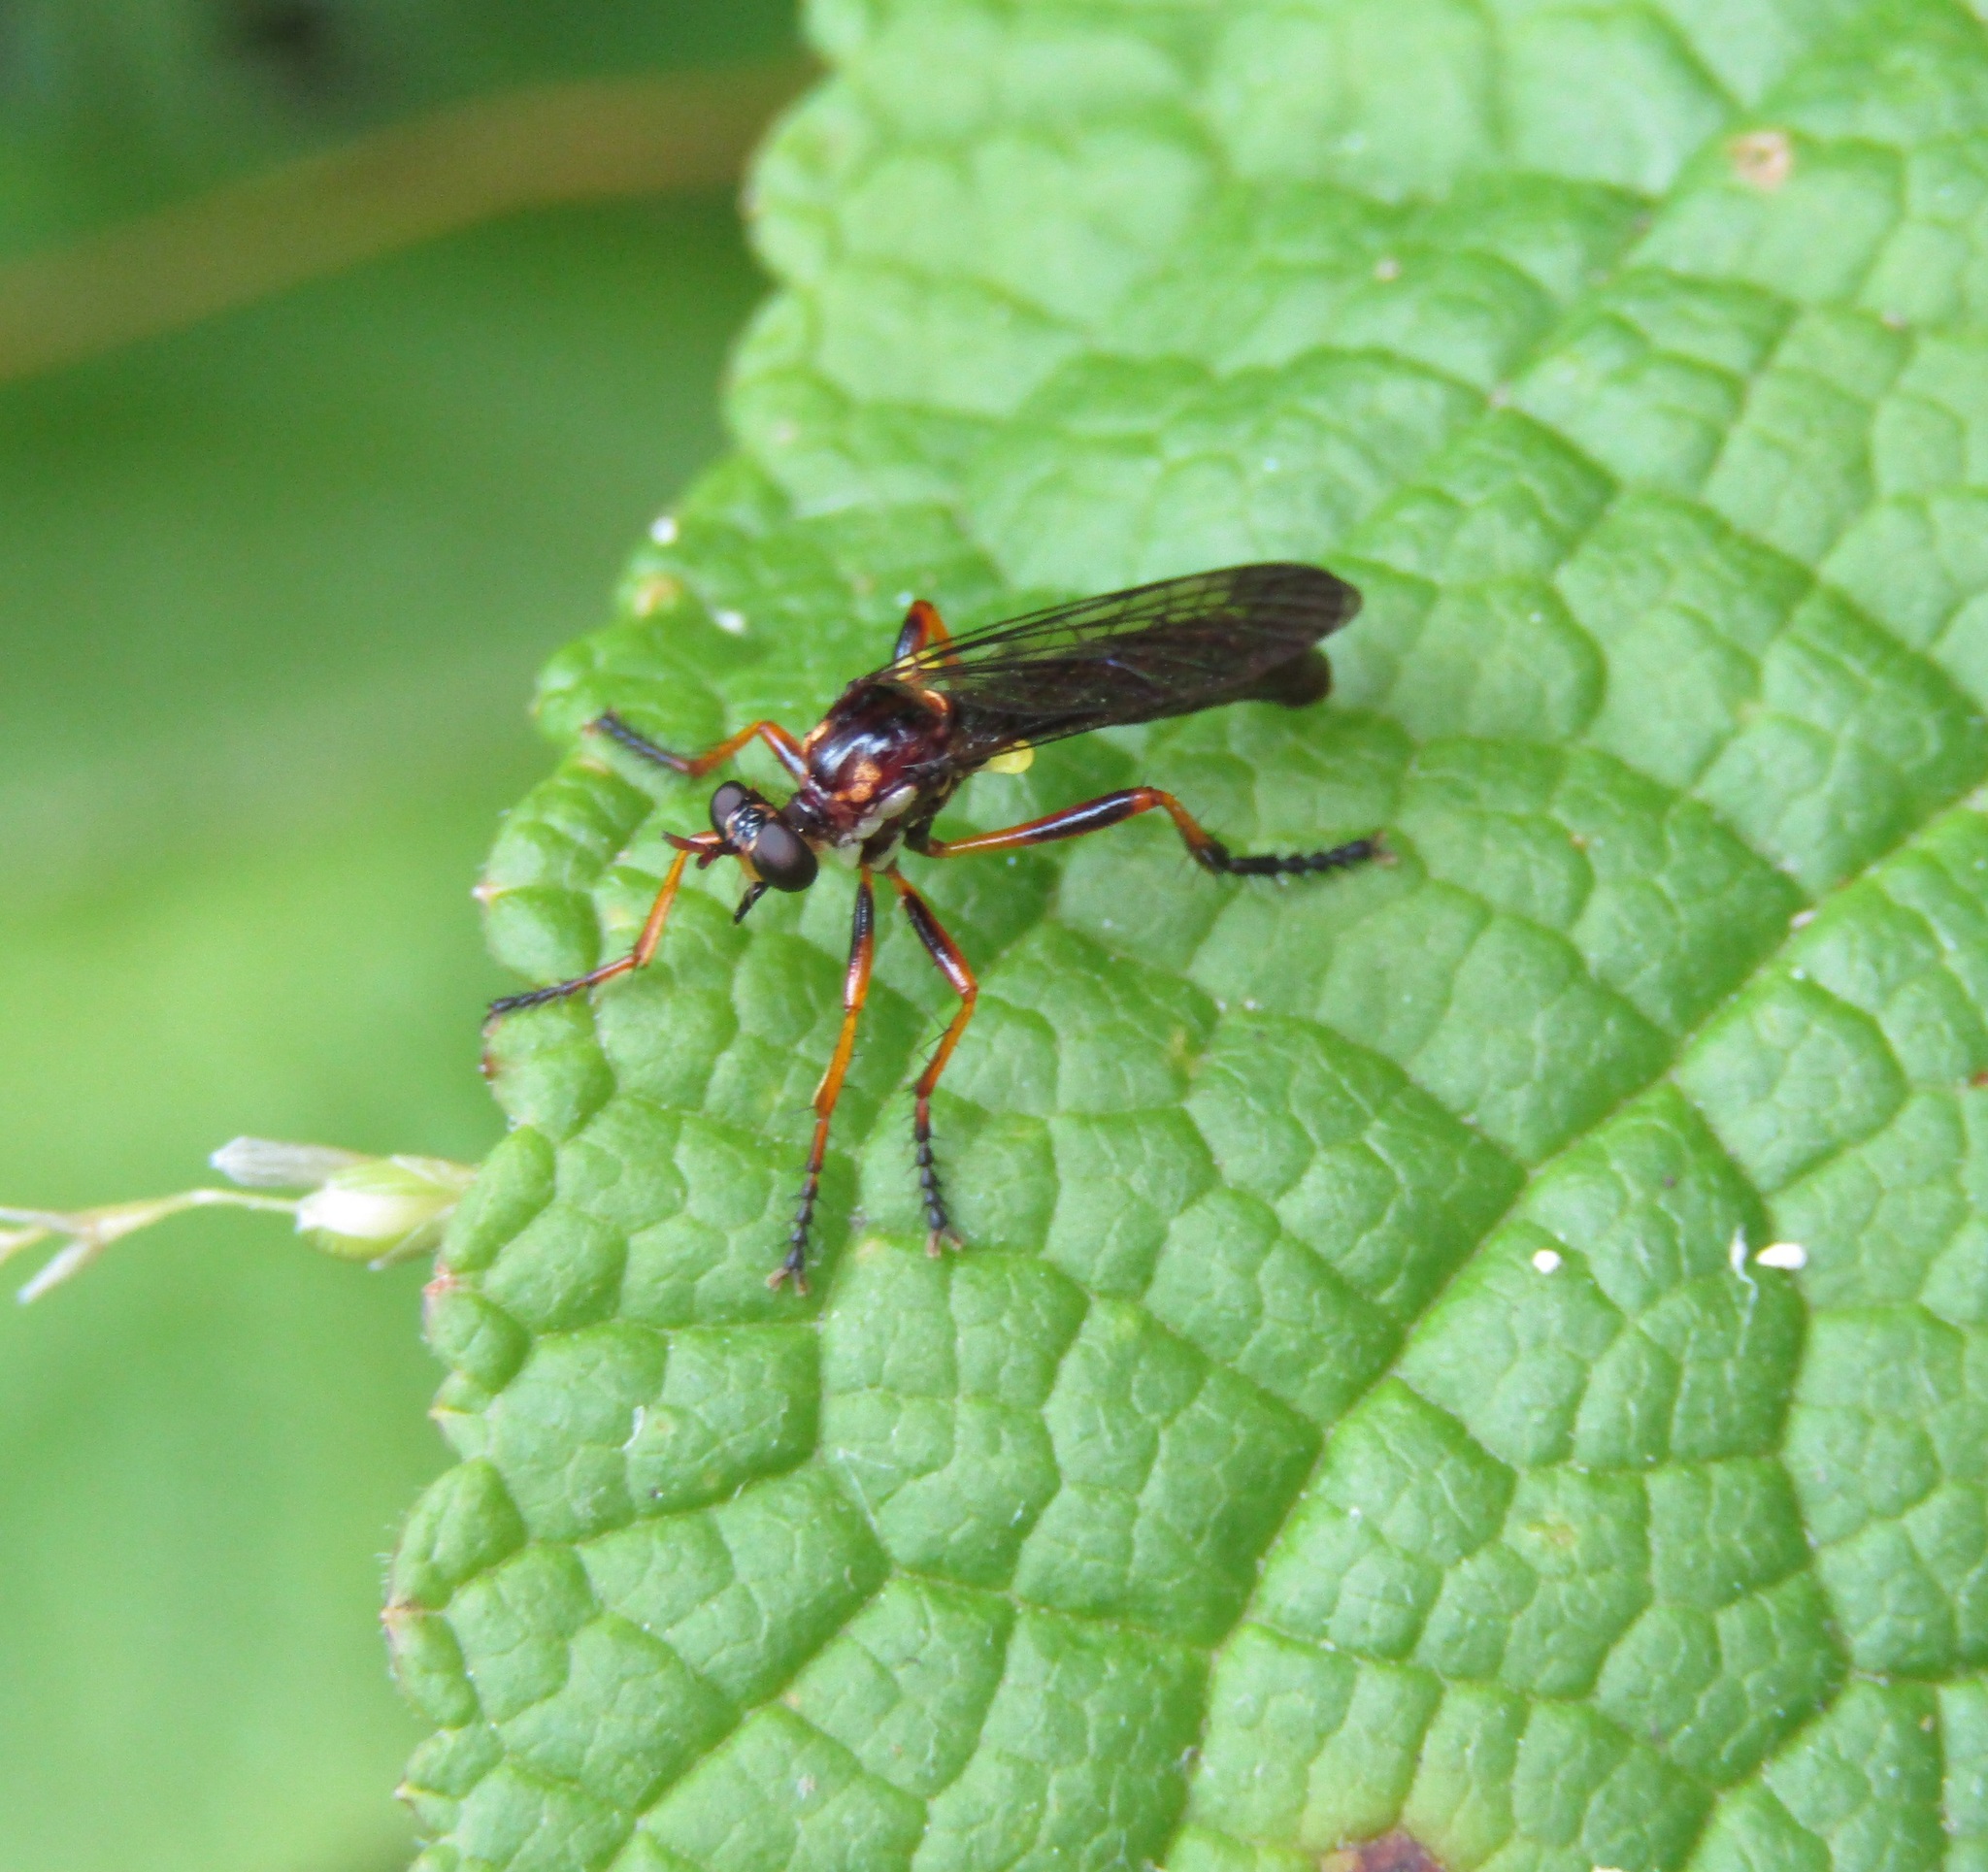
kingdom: Animalia
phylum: Arthropoda
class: Insecta
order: Diptera
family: Asilidae
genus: Saropogon
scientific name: Saropogon fascipes
